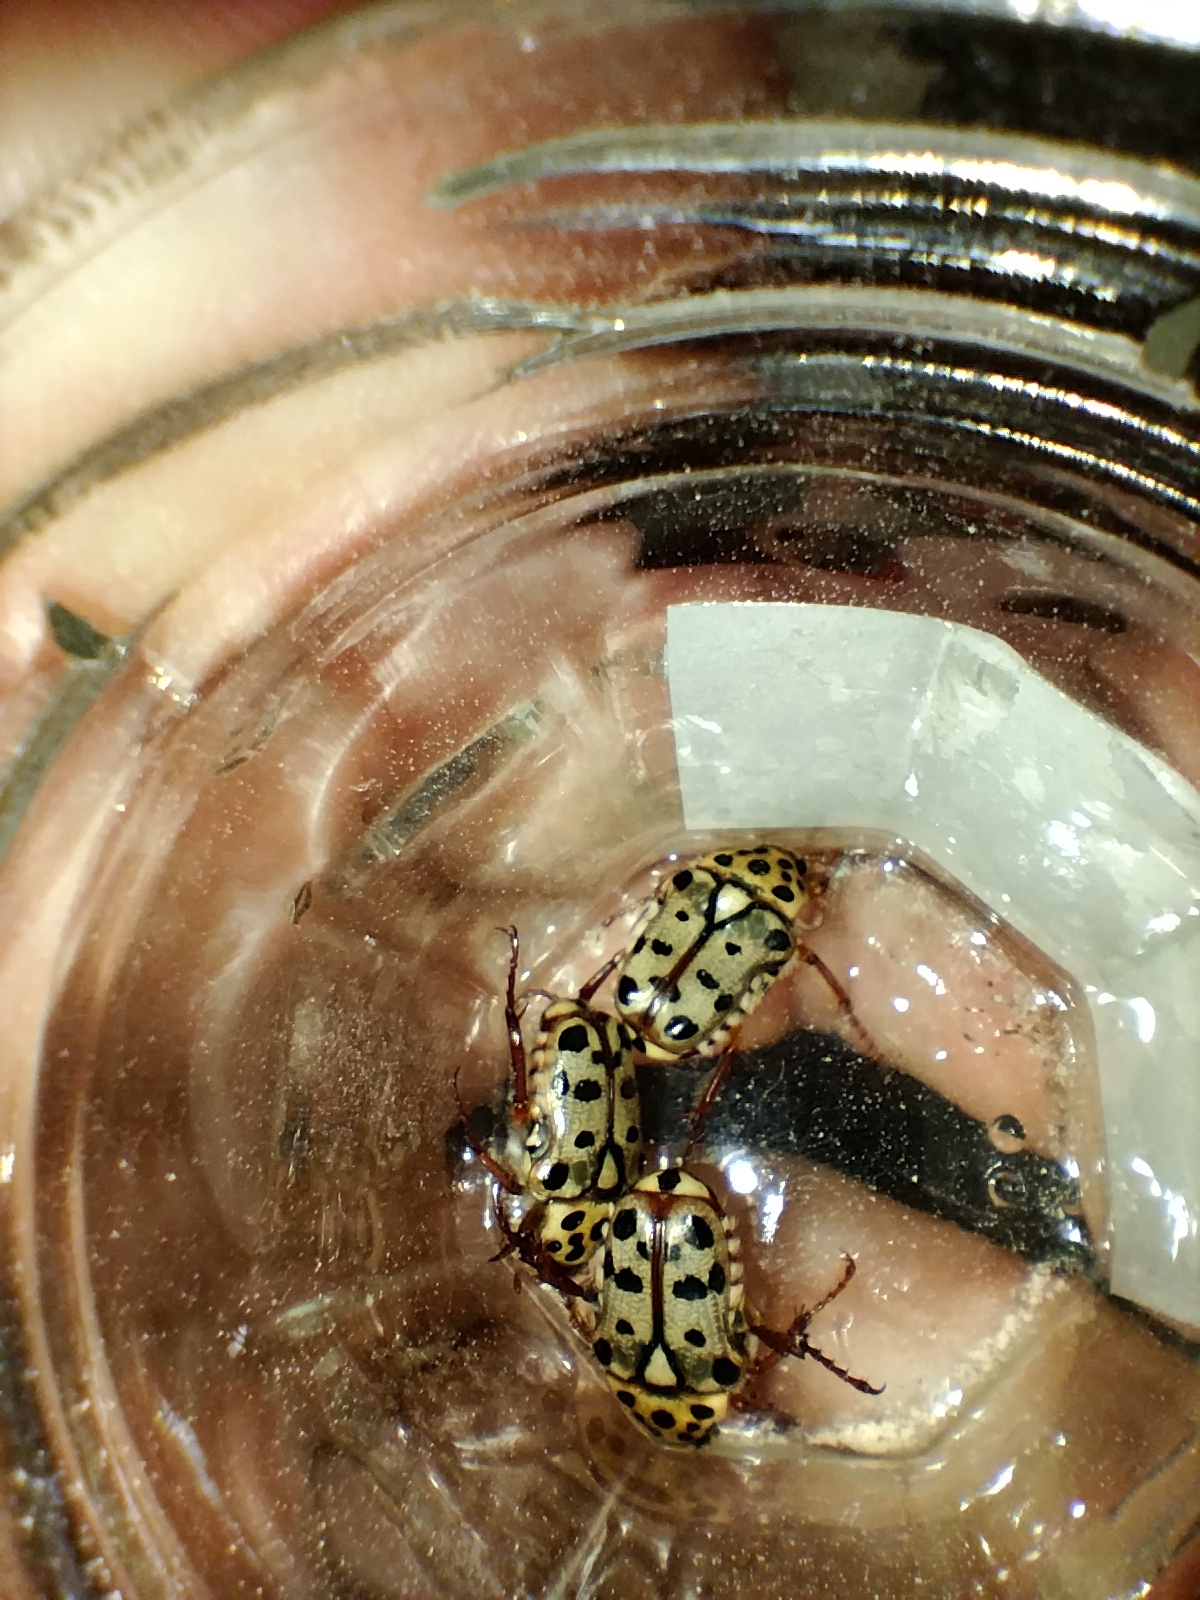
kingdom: Animalia
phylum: Arthropoda
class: Insecta
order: Coleoptera
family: Scarabaeidae
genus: Neorrhina
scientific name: Neorrhina punctatum
